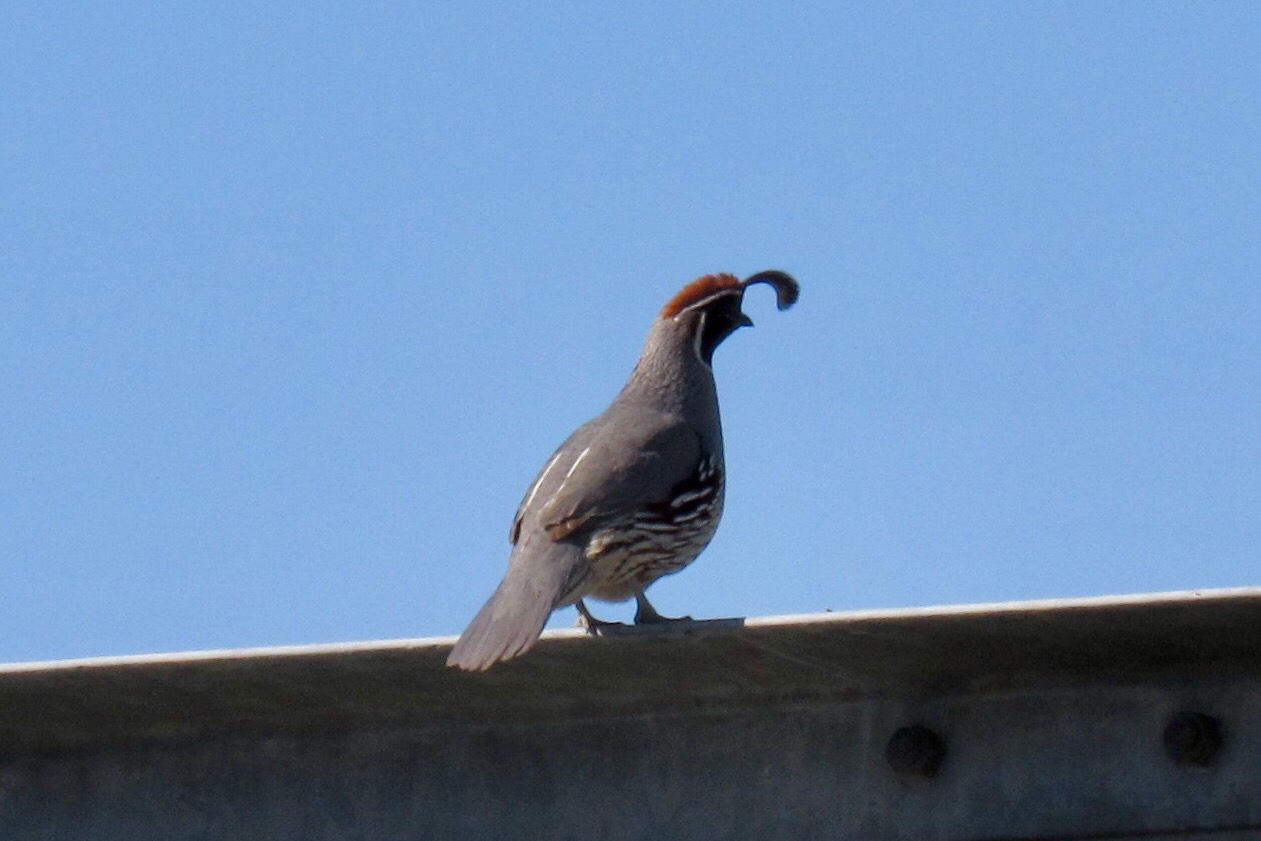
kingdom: Animalia
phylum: Chordata
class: Aves
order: Galliformes
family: Odontophoridae
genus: Callipepla
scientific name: Callipepla gambelii
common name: Gambel's quail
